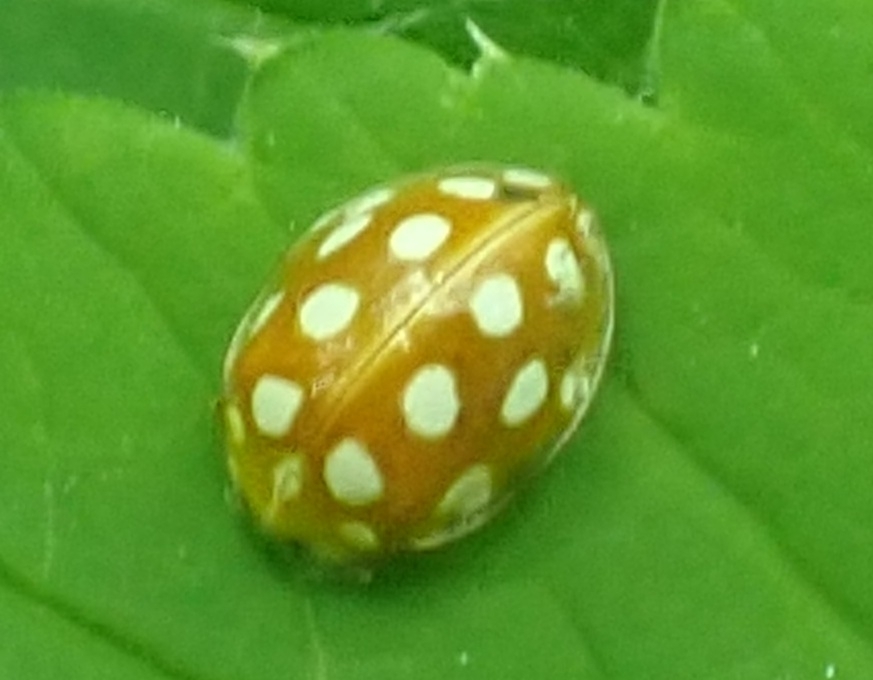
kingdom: Animalia
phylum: Arthropoda
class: Insecta
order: Coleoptera
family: Coccinellidae
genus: Halyzia
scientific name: Halyzia sedecimguttata
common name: Orange ladybird
